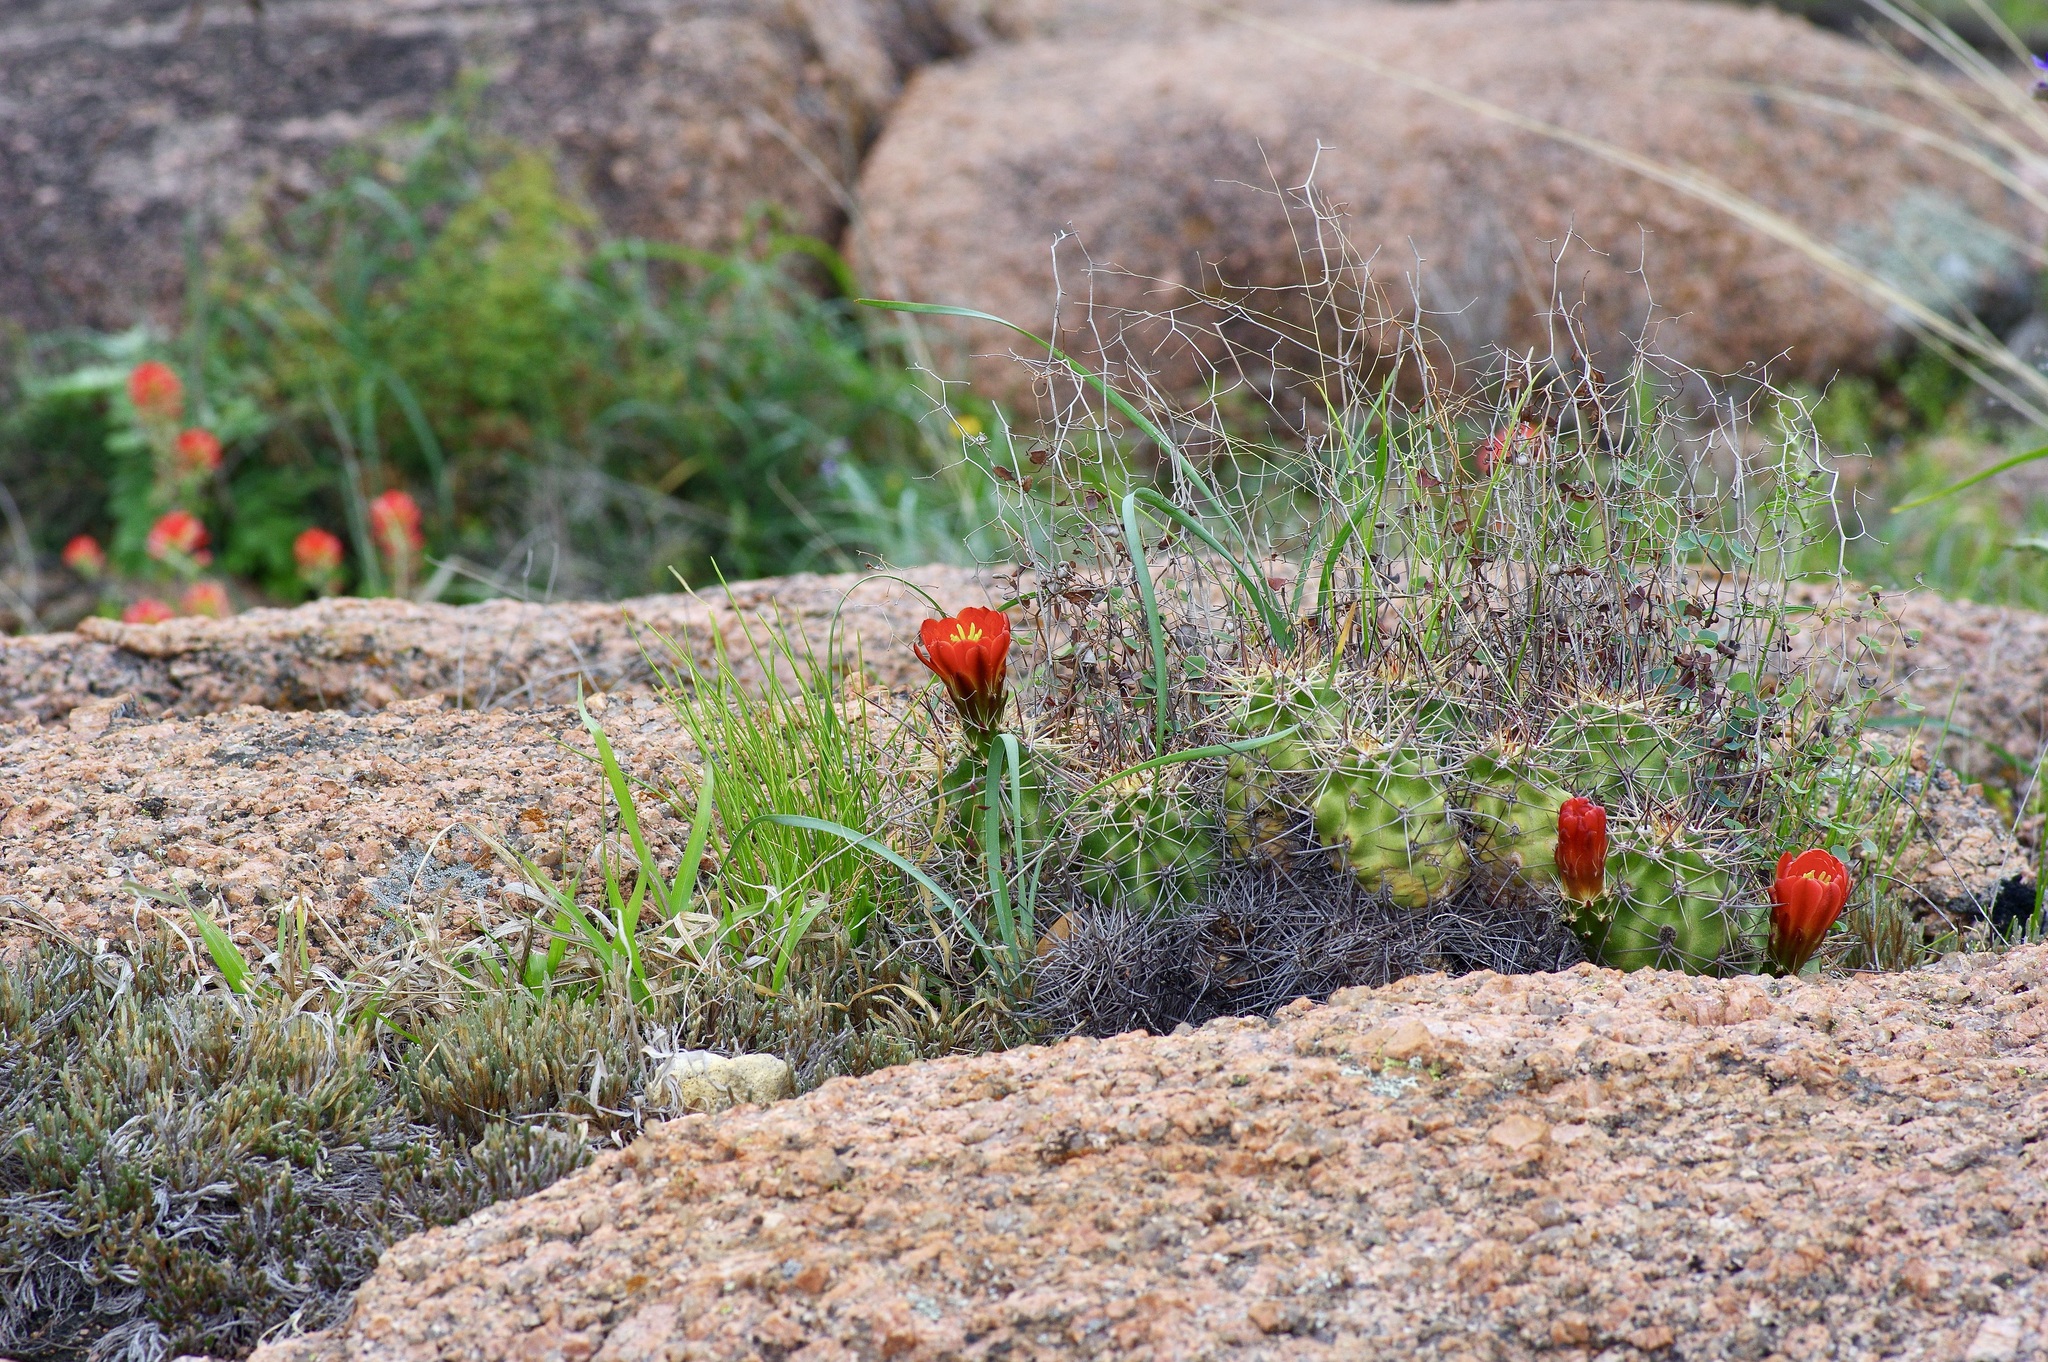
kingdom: Plantae
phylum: Tracheophyta
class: Magnoliopsida
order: Caryophyllales
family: Cactaceae
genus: Echinocereus
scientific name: Echinocereus coccineus
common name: Scarlet hedgehog cactus
